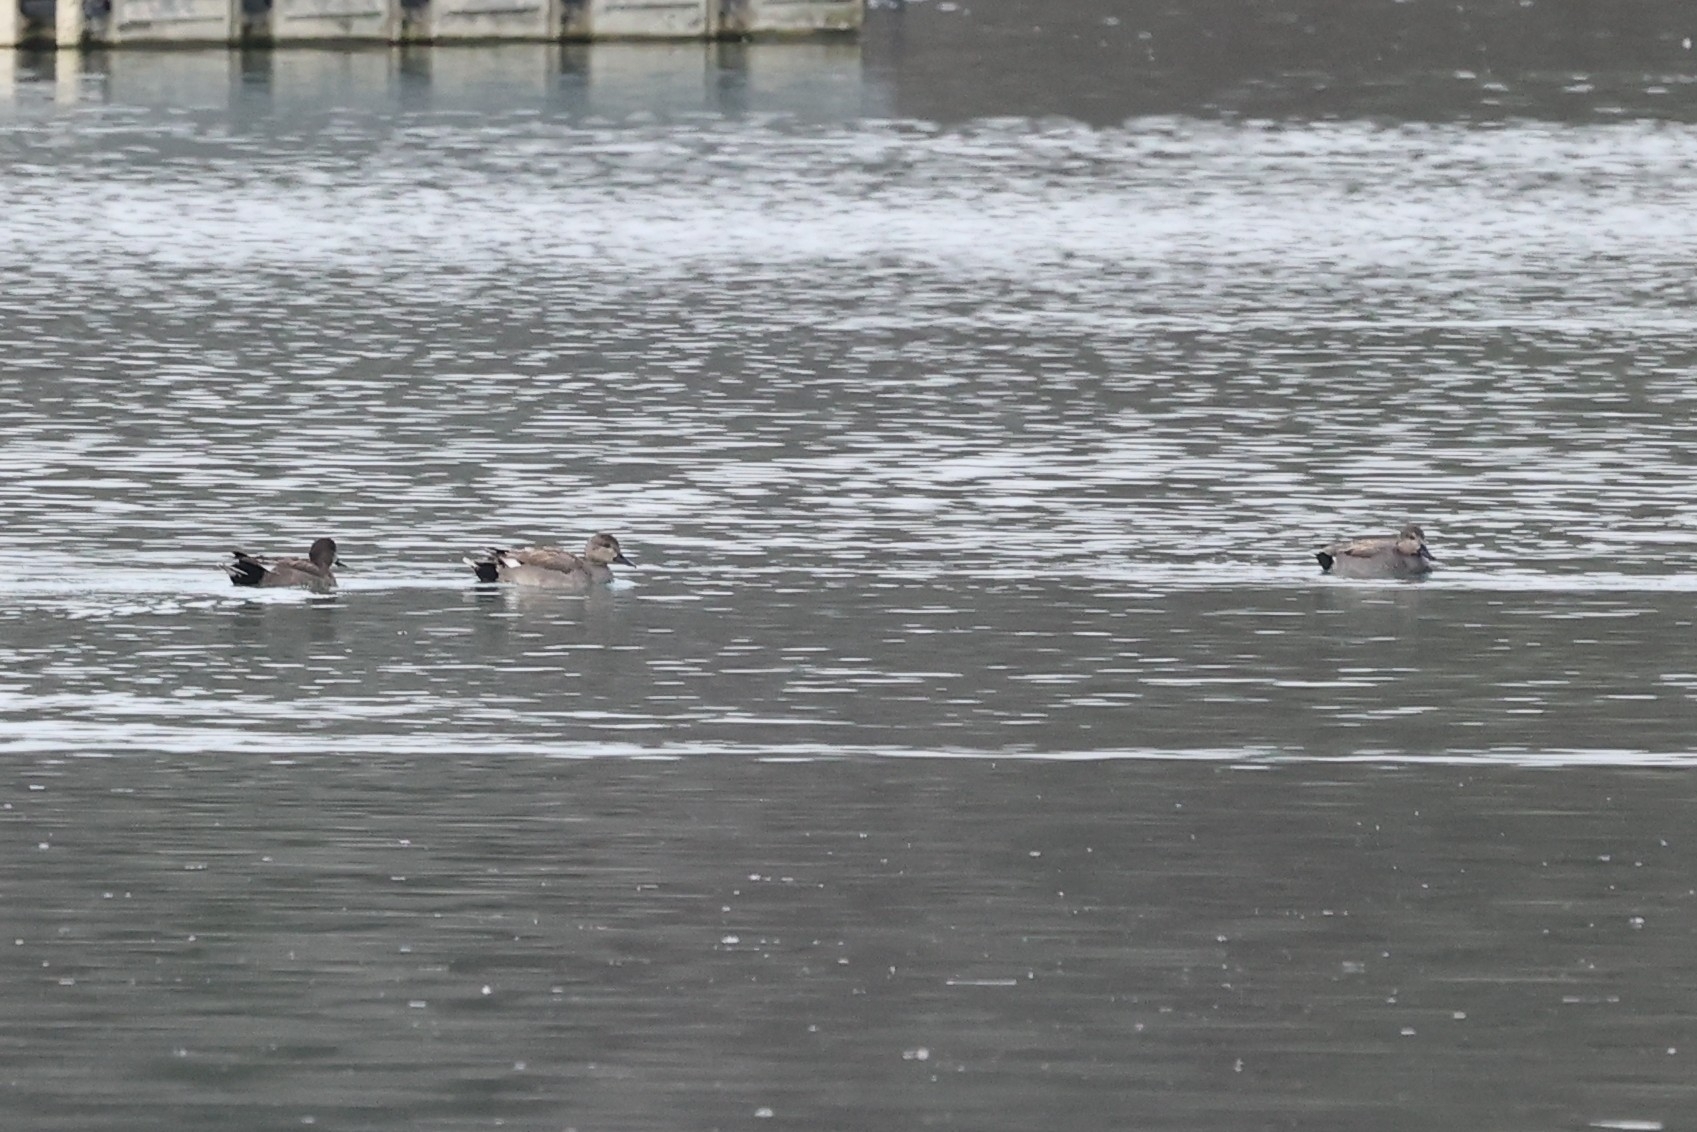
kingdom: Animalia
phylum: Chordata
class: Aves
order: Anseriformes
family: Anatidae
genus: Mareca
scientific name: Mareca strepera
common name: Gadwall
